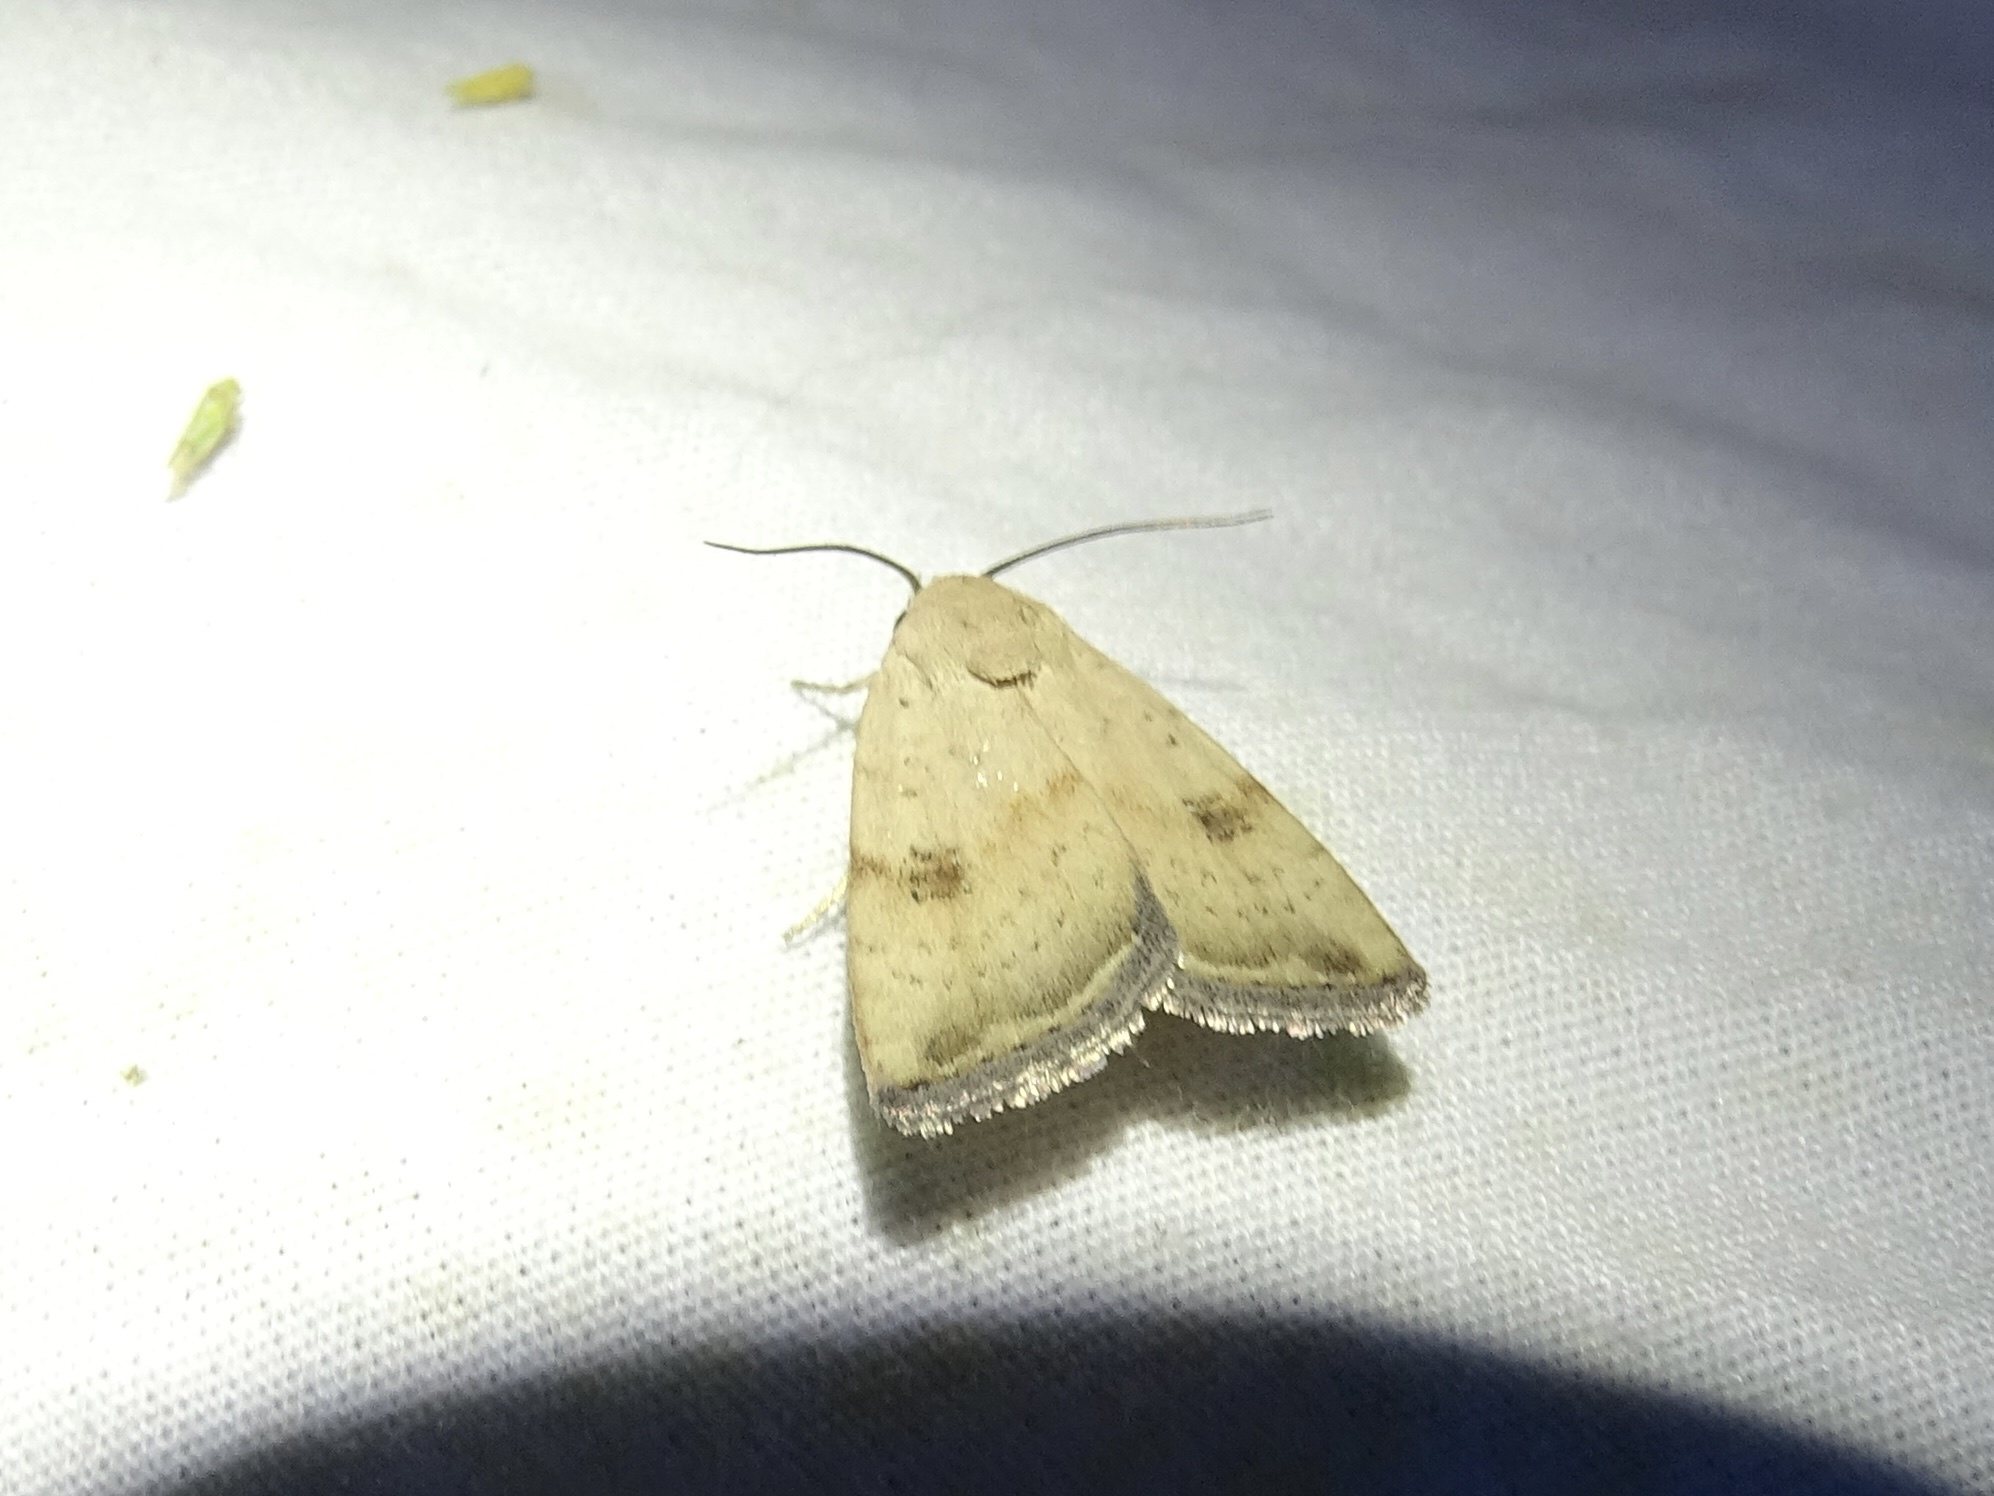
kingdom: Animalia
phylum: Arthropoda
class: Insecta
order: Lepidoptera
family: Noctuidae
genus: Micrathetis
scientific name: Micrathetis triplex
